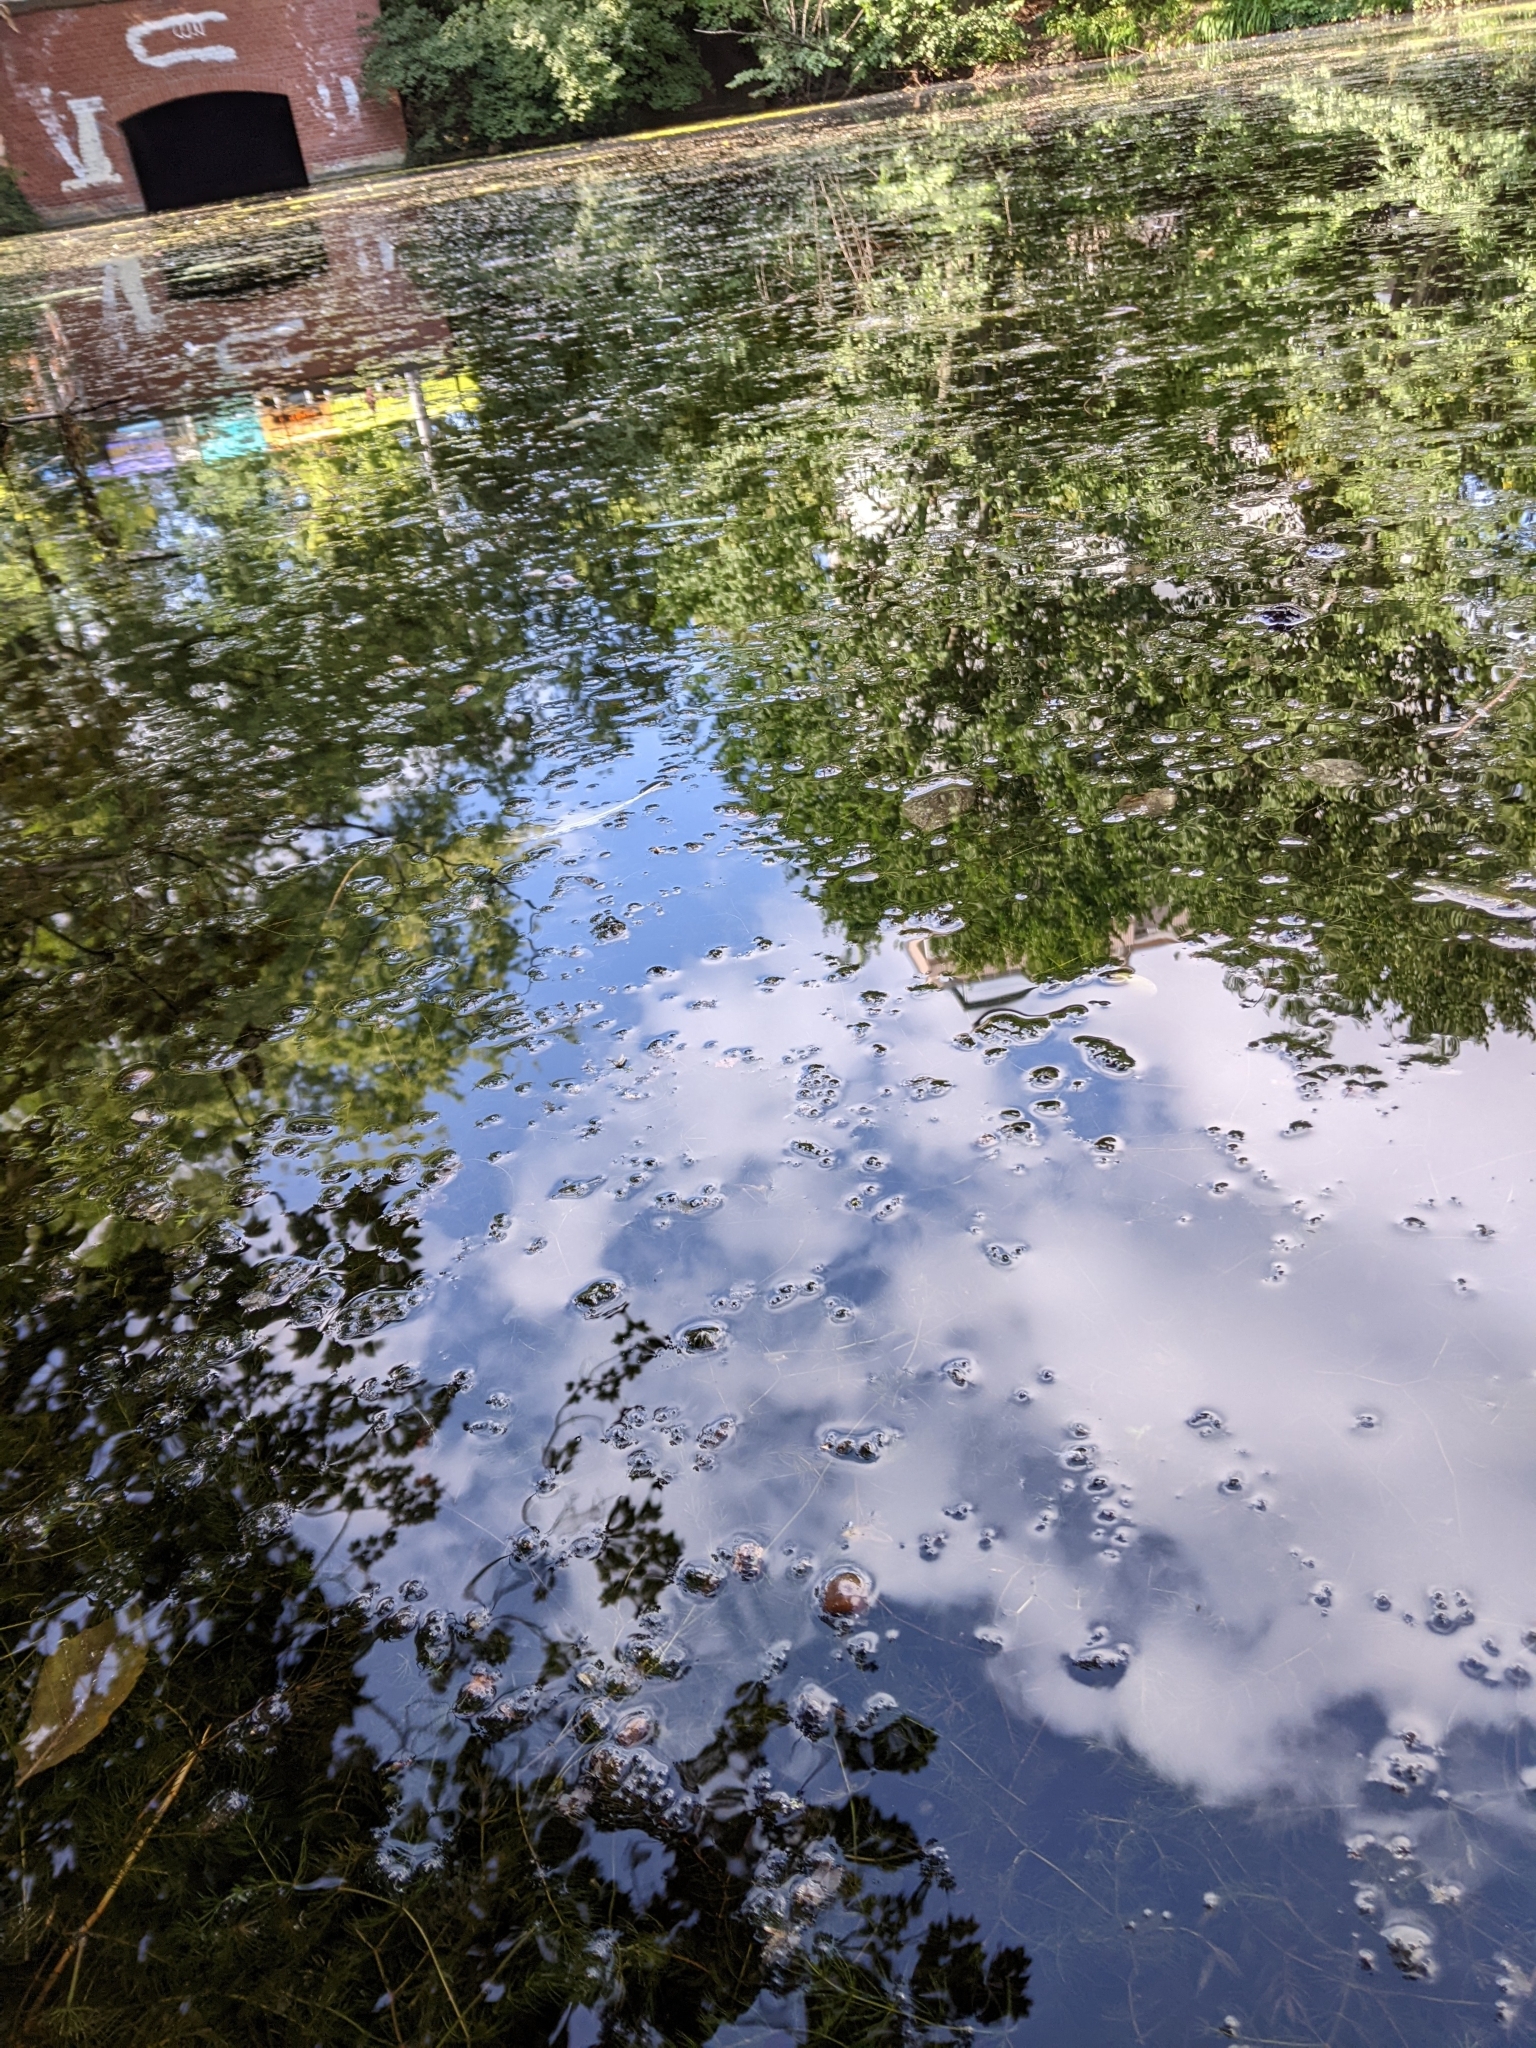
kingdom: Plantae
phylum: Tracheophyta
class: Magnoliopsida
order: Ceratophyllales
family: Ceratophyllaceae
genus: Ceratophyllum
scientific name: Ceratophyllum demersum
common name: Rigid hornwort
